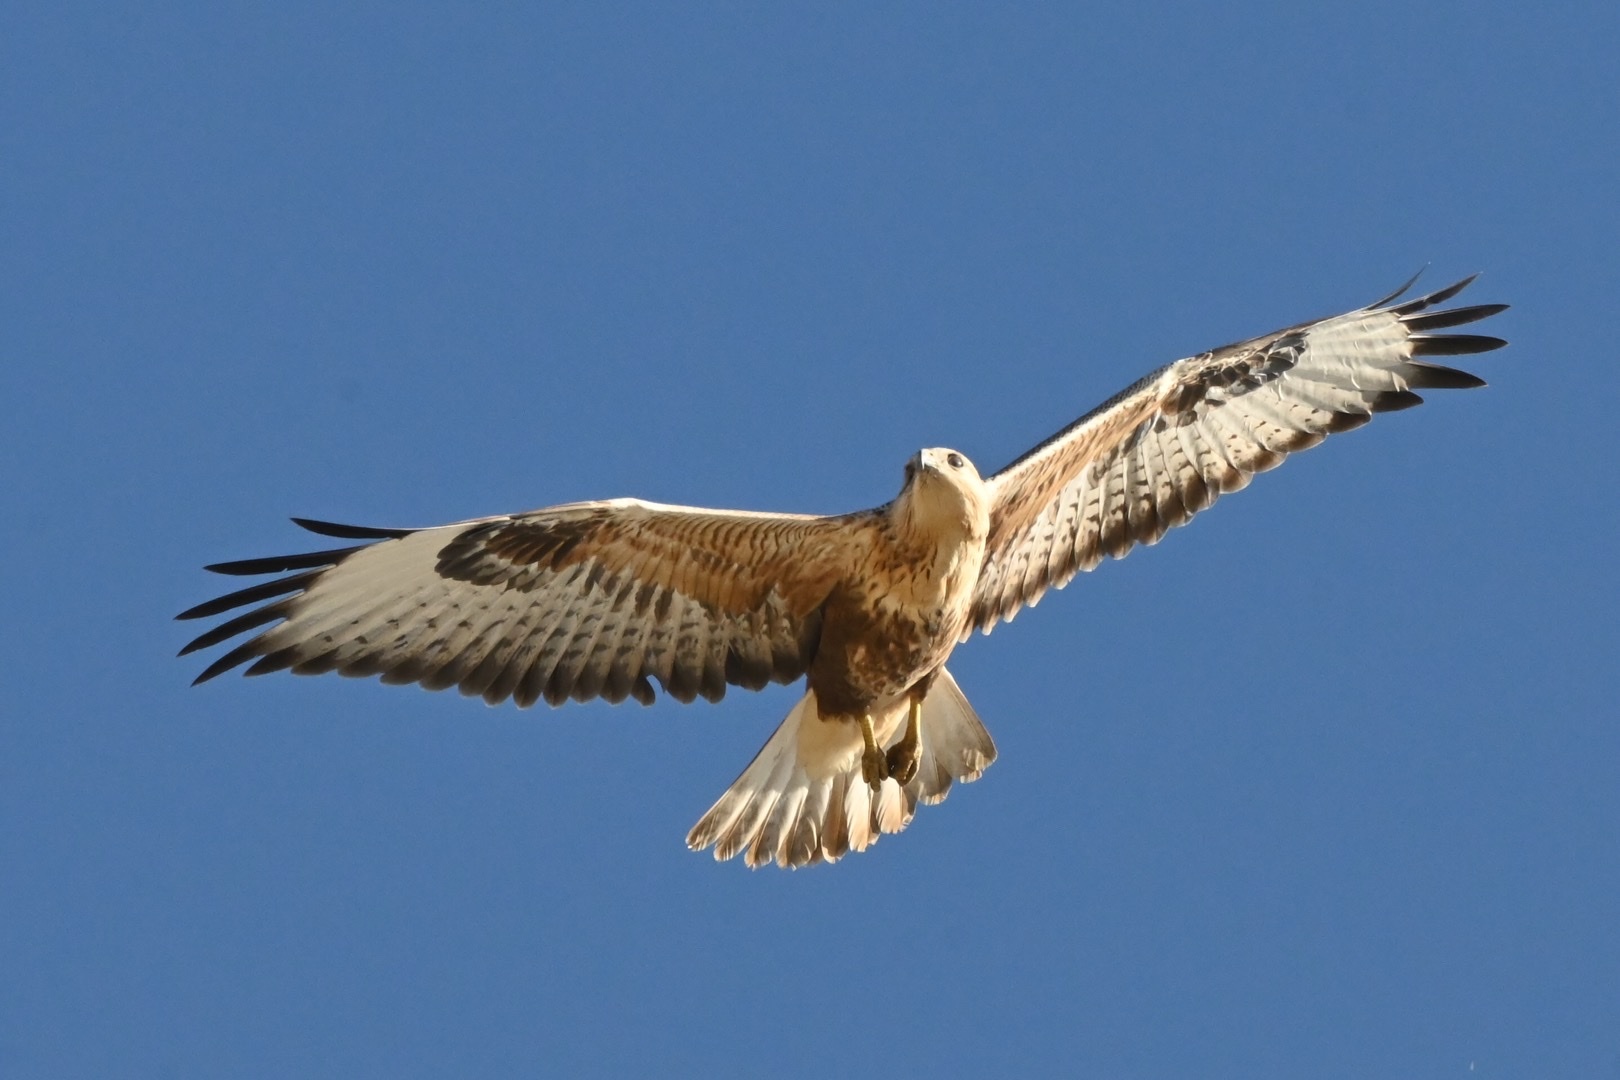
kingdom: Animalia
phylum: Chordata
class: Aves
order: Accipitriformes
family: Accipitridae
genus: Buteo
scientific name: Buteo rufinus
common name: Long-legged buzzard
